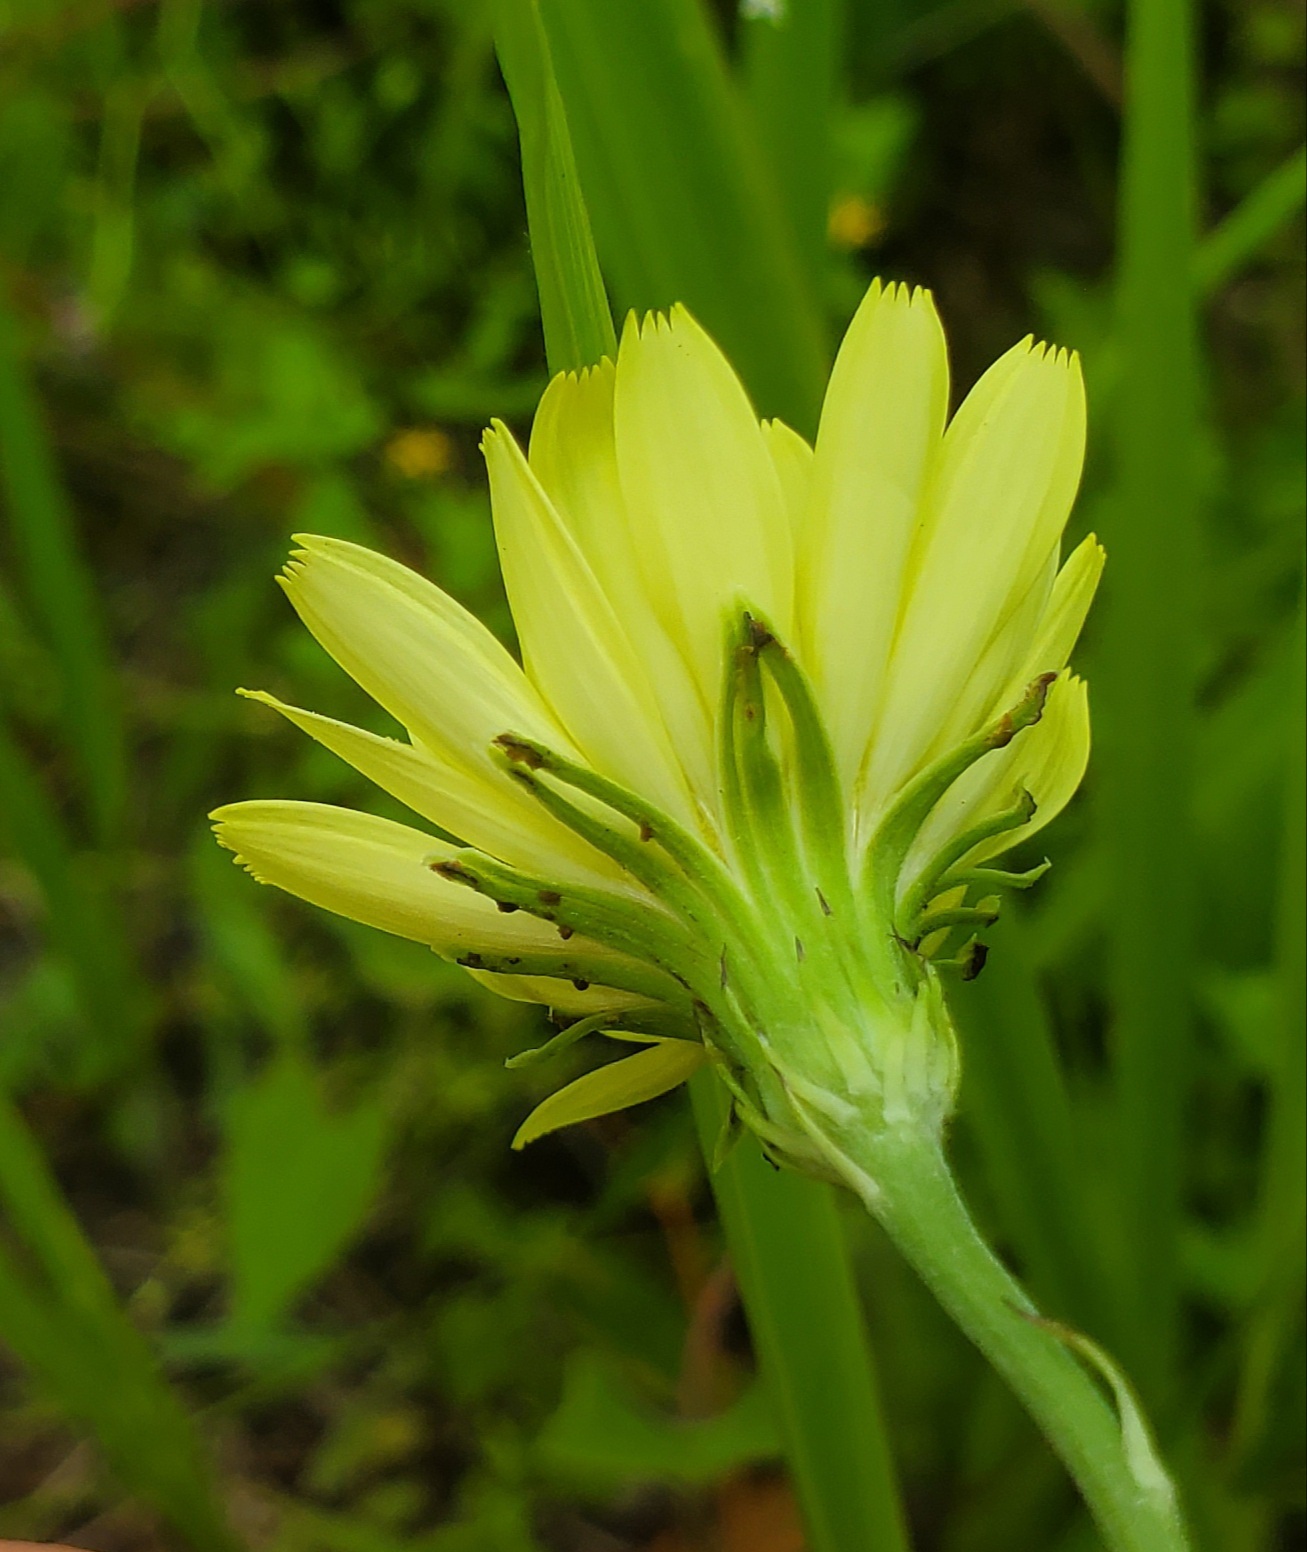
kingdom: Plantae
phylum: Tracheophyta
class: Magnoliopsida
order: Asterales
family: Asteraceae
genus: Pyrrhopappus
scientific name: Pyrrhopappus carolinianus
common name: Carolina desert-chicory
